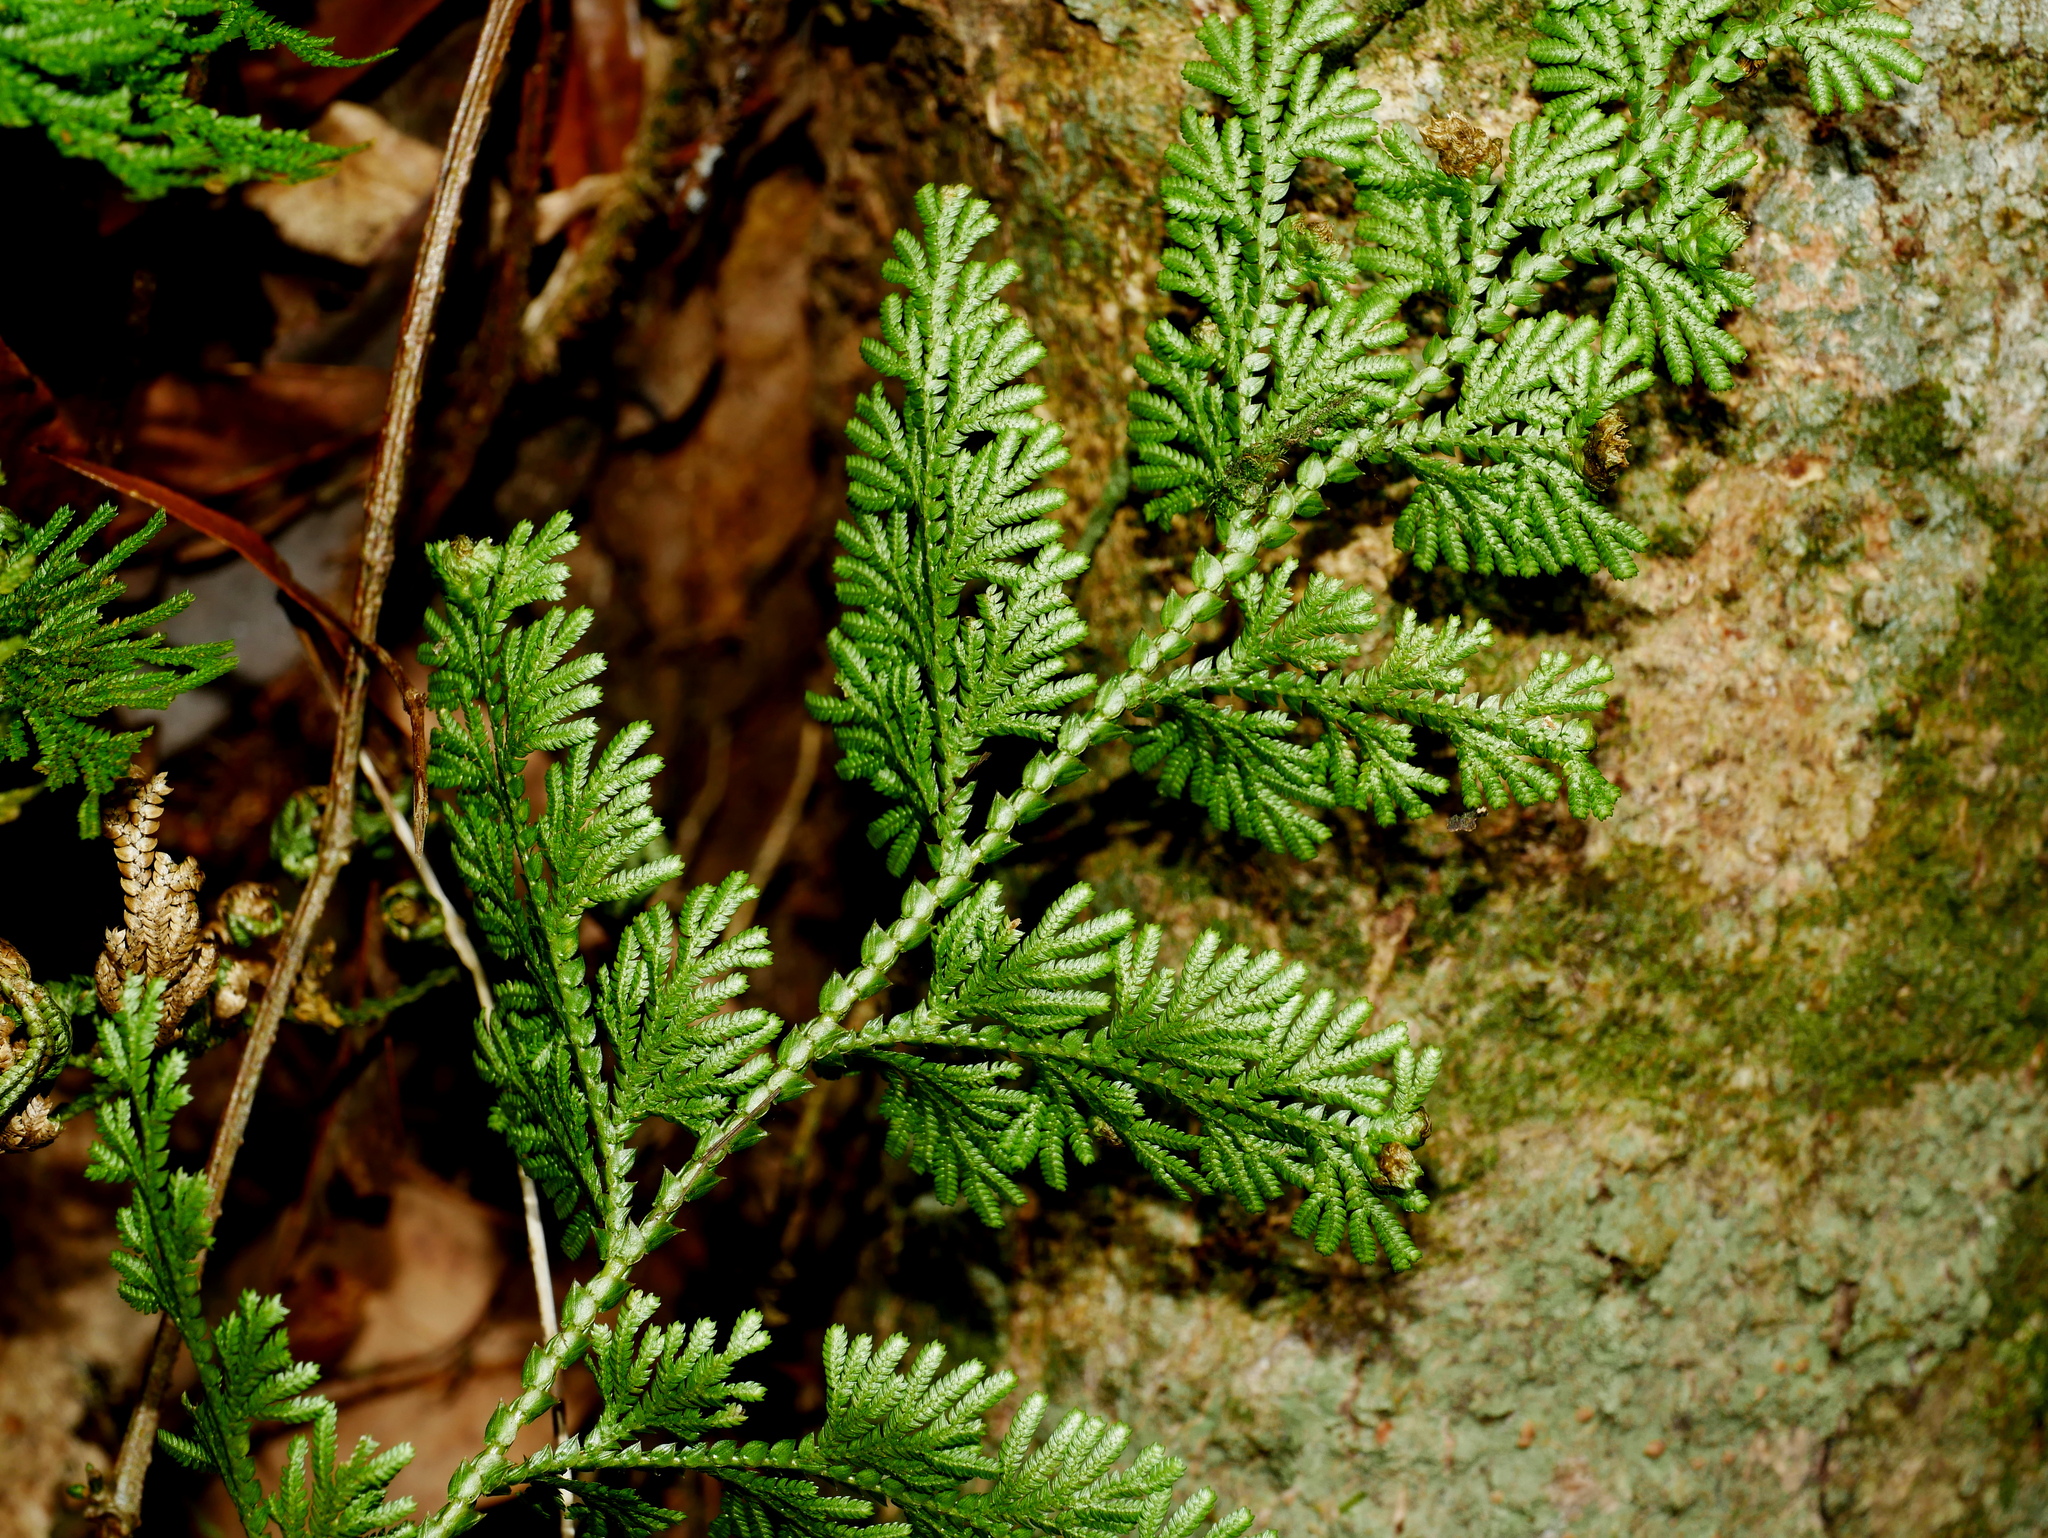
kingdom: Plantae
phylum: Tracheophyta
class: Lycopodiopsida
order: Selaginellales
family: Selaginellaceae
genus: Selaginella
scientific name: Selaginella involvens
